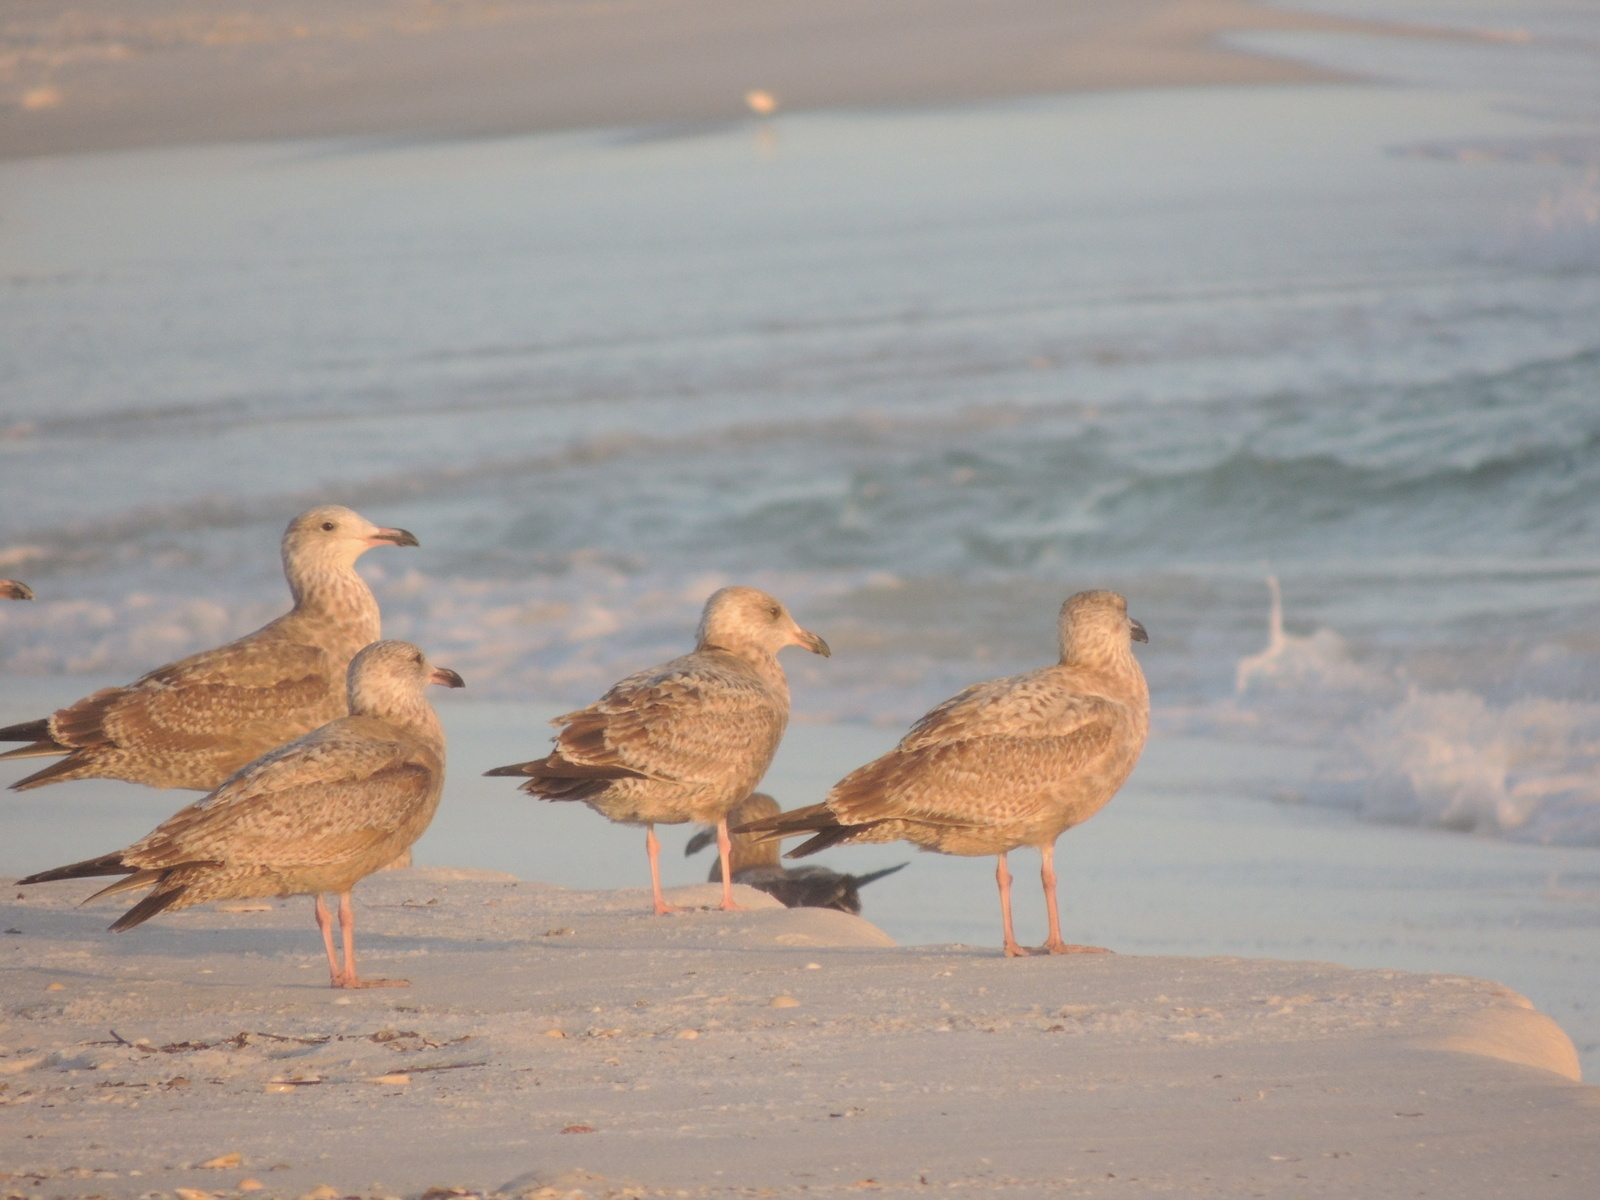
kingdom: Animalia
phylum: Chordata
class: Aves
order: Charadriiformes
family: Laridae
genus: Larus
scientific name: Larus smithsonianus
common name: American herring gull
